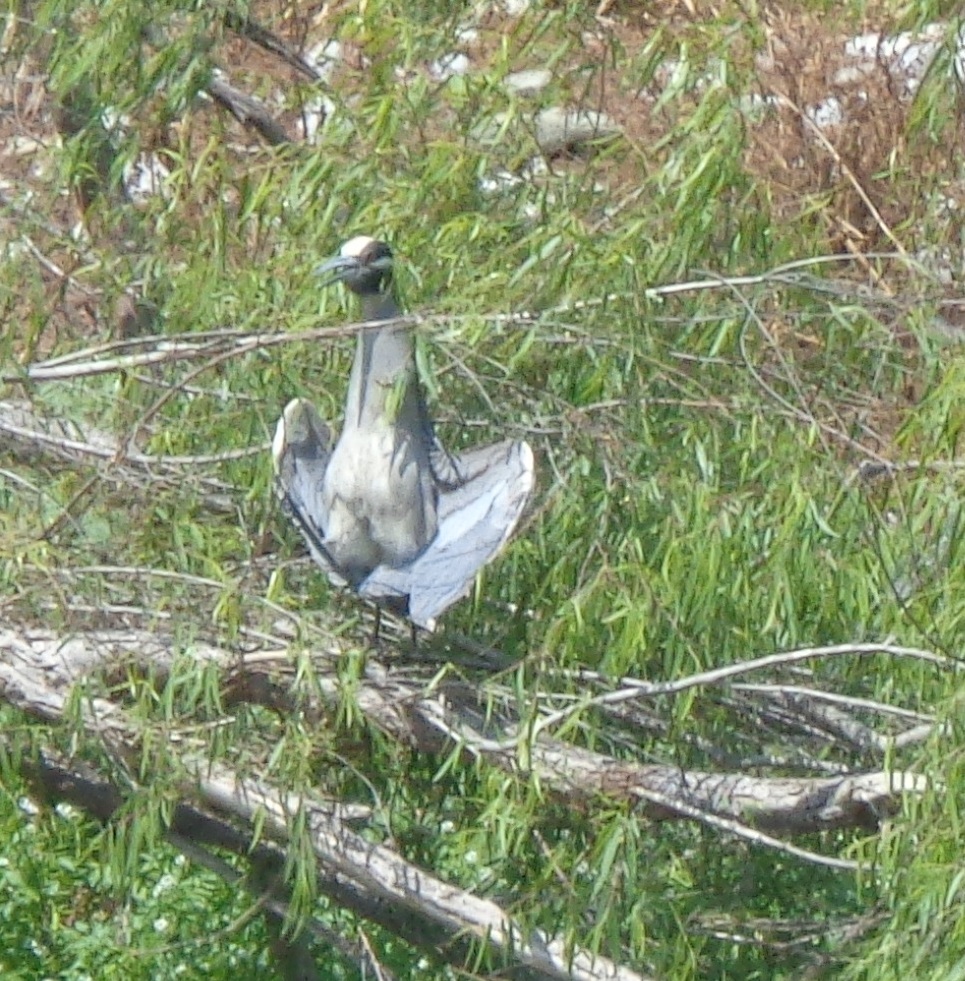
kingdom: Animalia
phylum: Chordata
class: Aves
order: Pelecaniformes
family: Ardeidae
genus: Nyctanassa
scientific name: Nyctanassa violacea
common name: Yellow-crowned night heron
